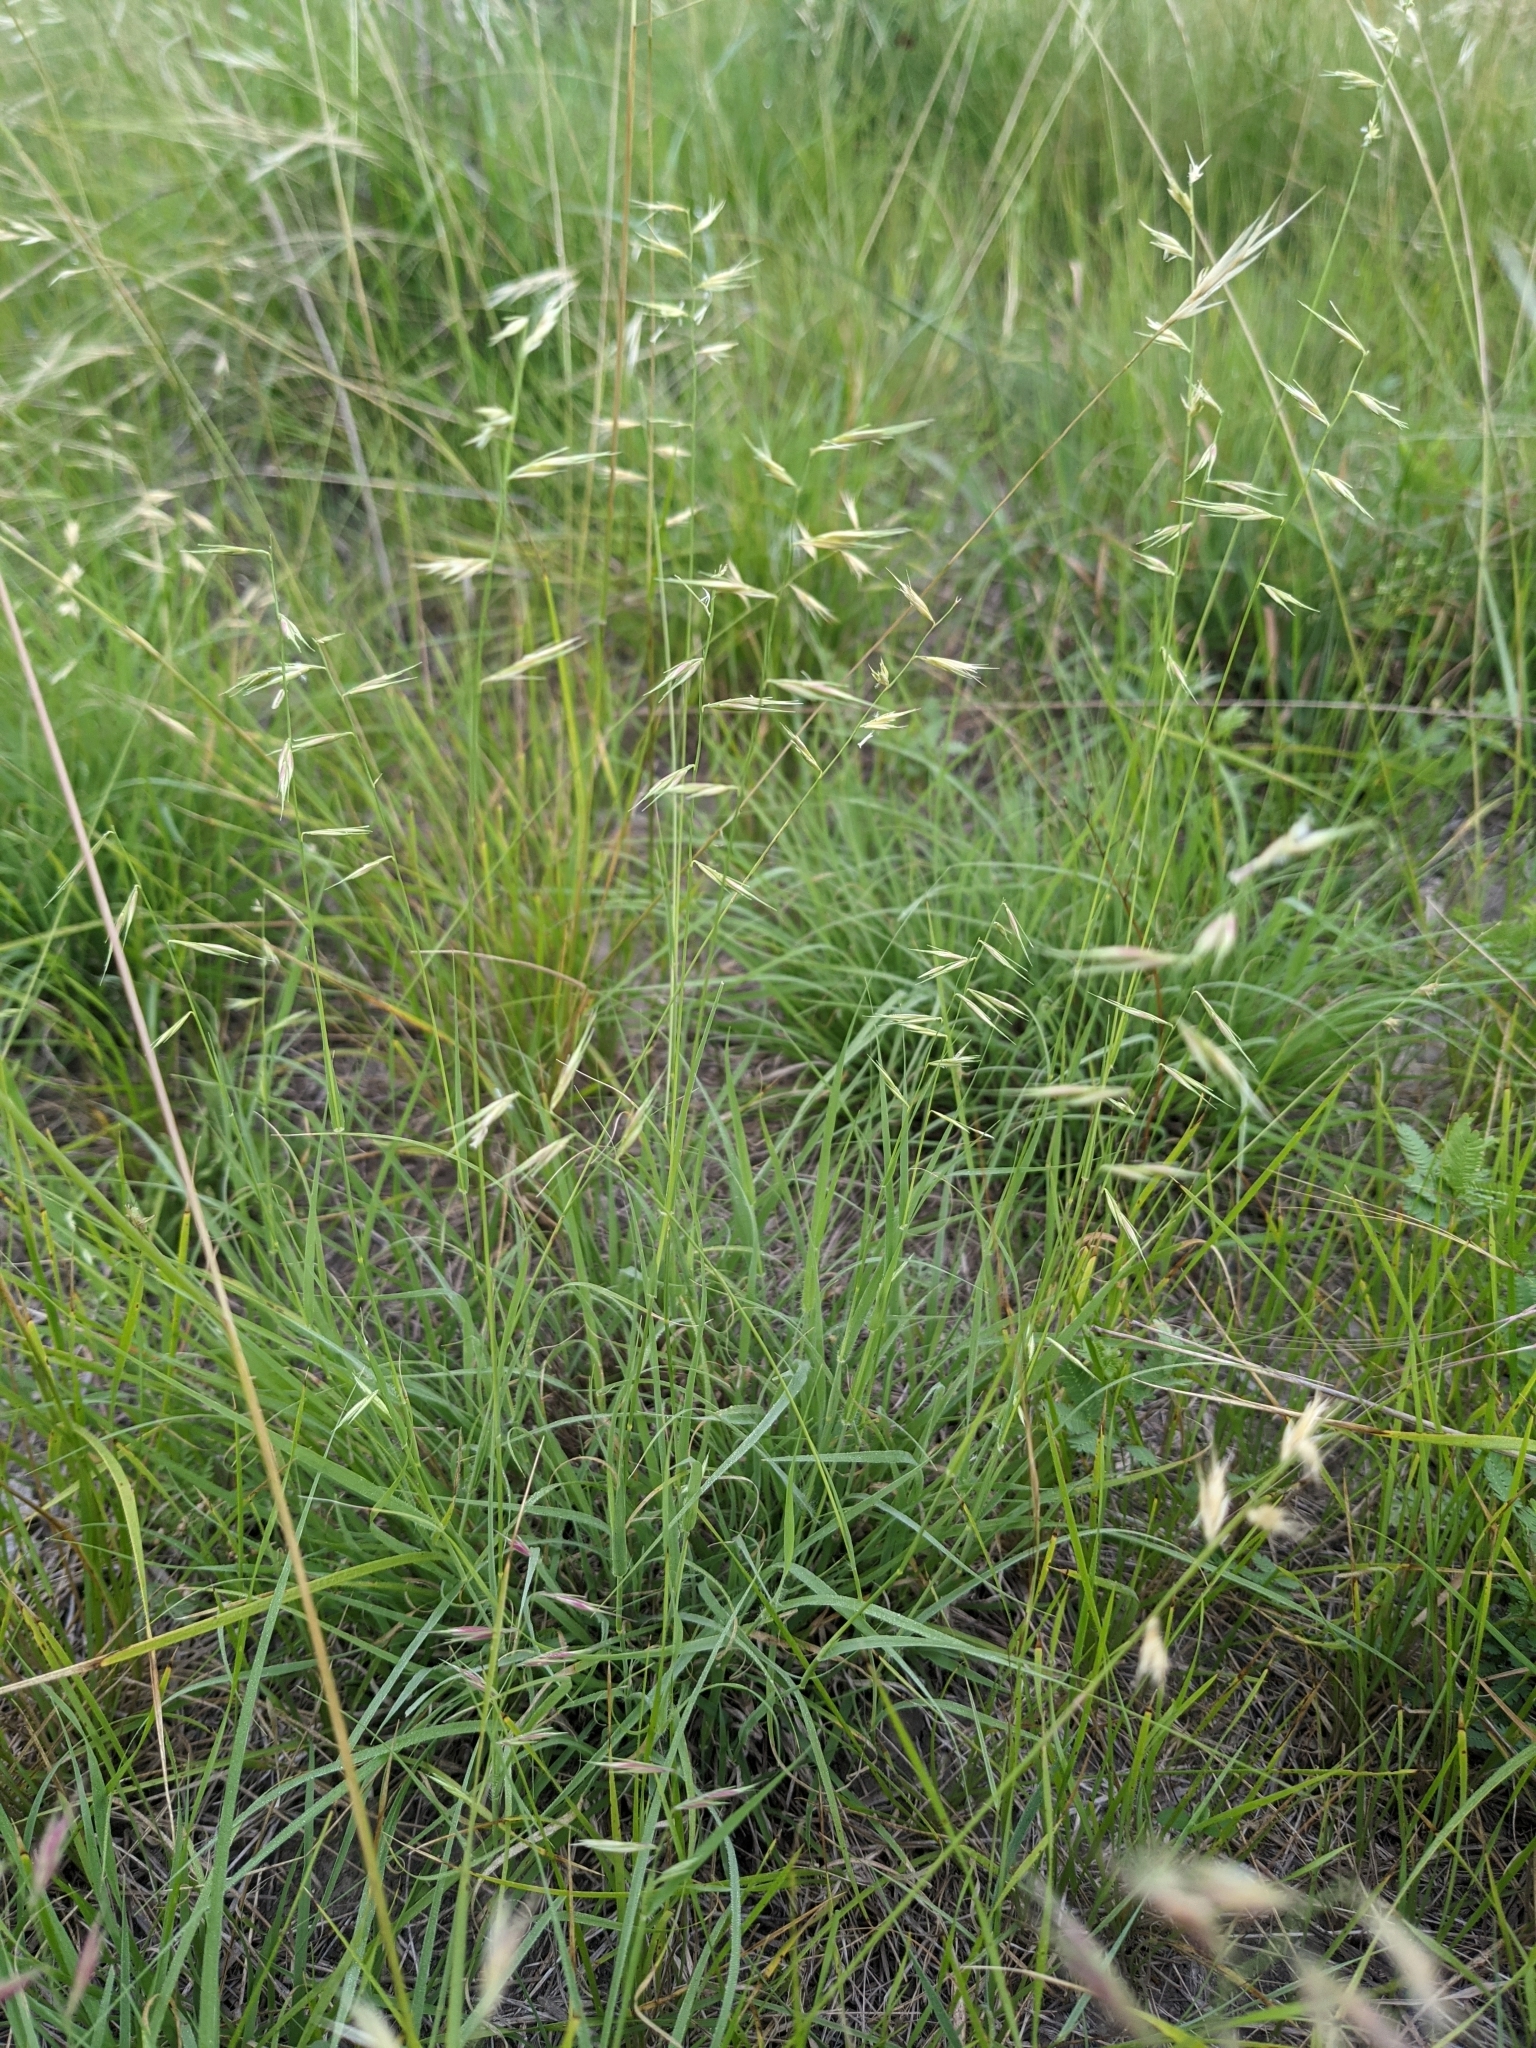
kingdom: Plantae
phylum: Tracheophyta
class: Liliopsida
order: Poales
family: Poaceae
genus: Bouteloua
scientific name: Bouteloua repens
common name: Slender grama
